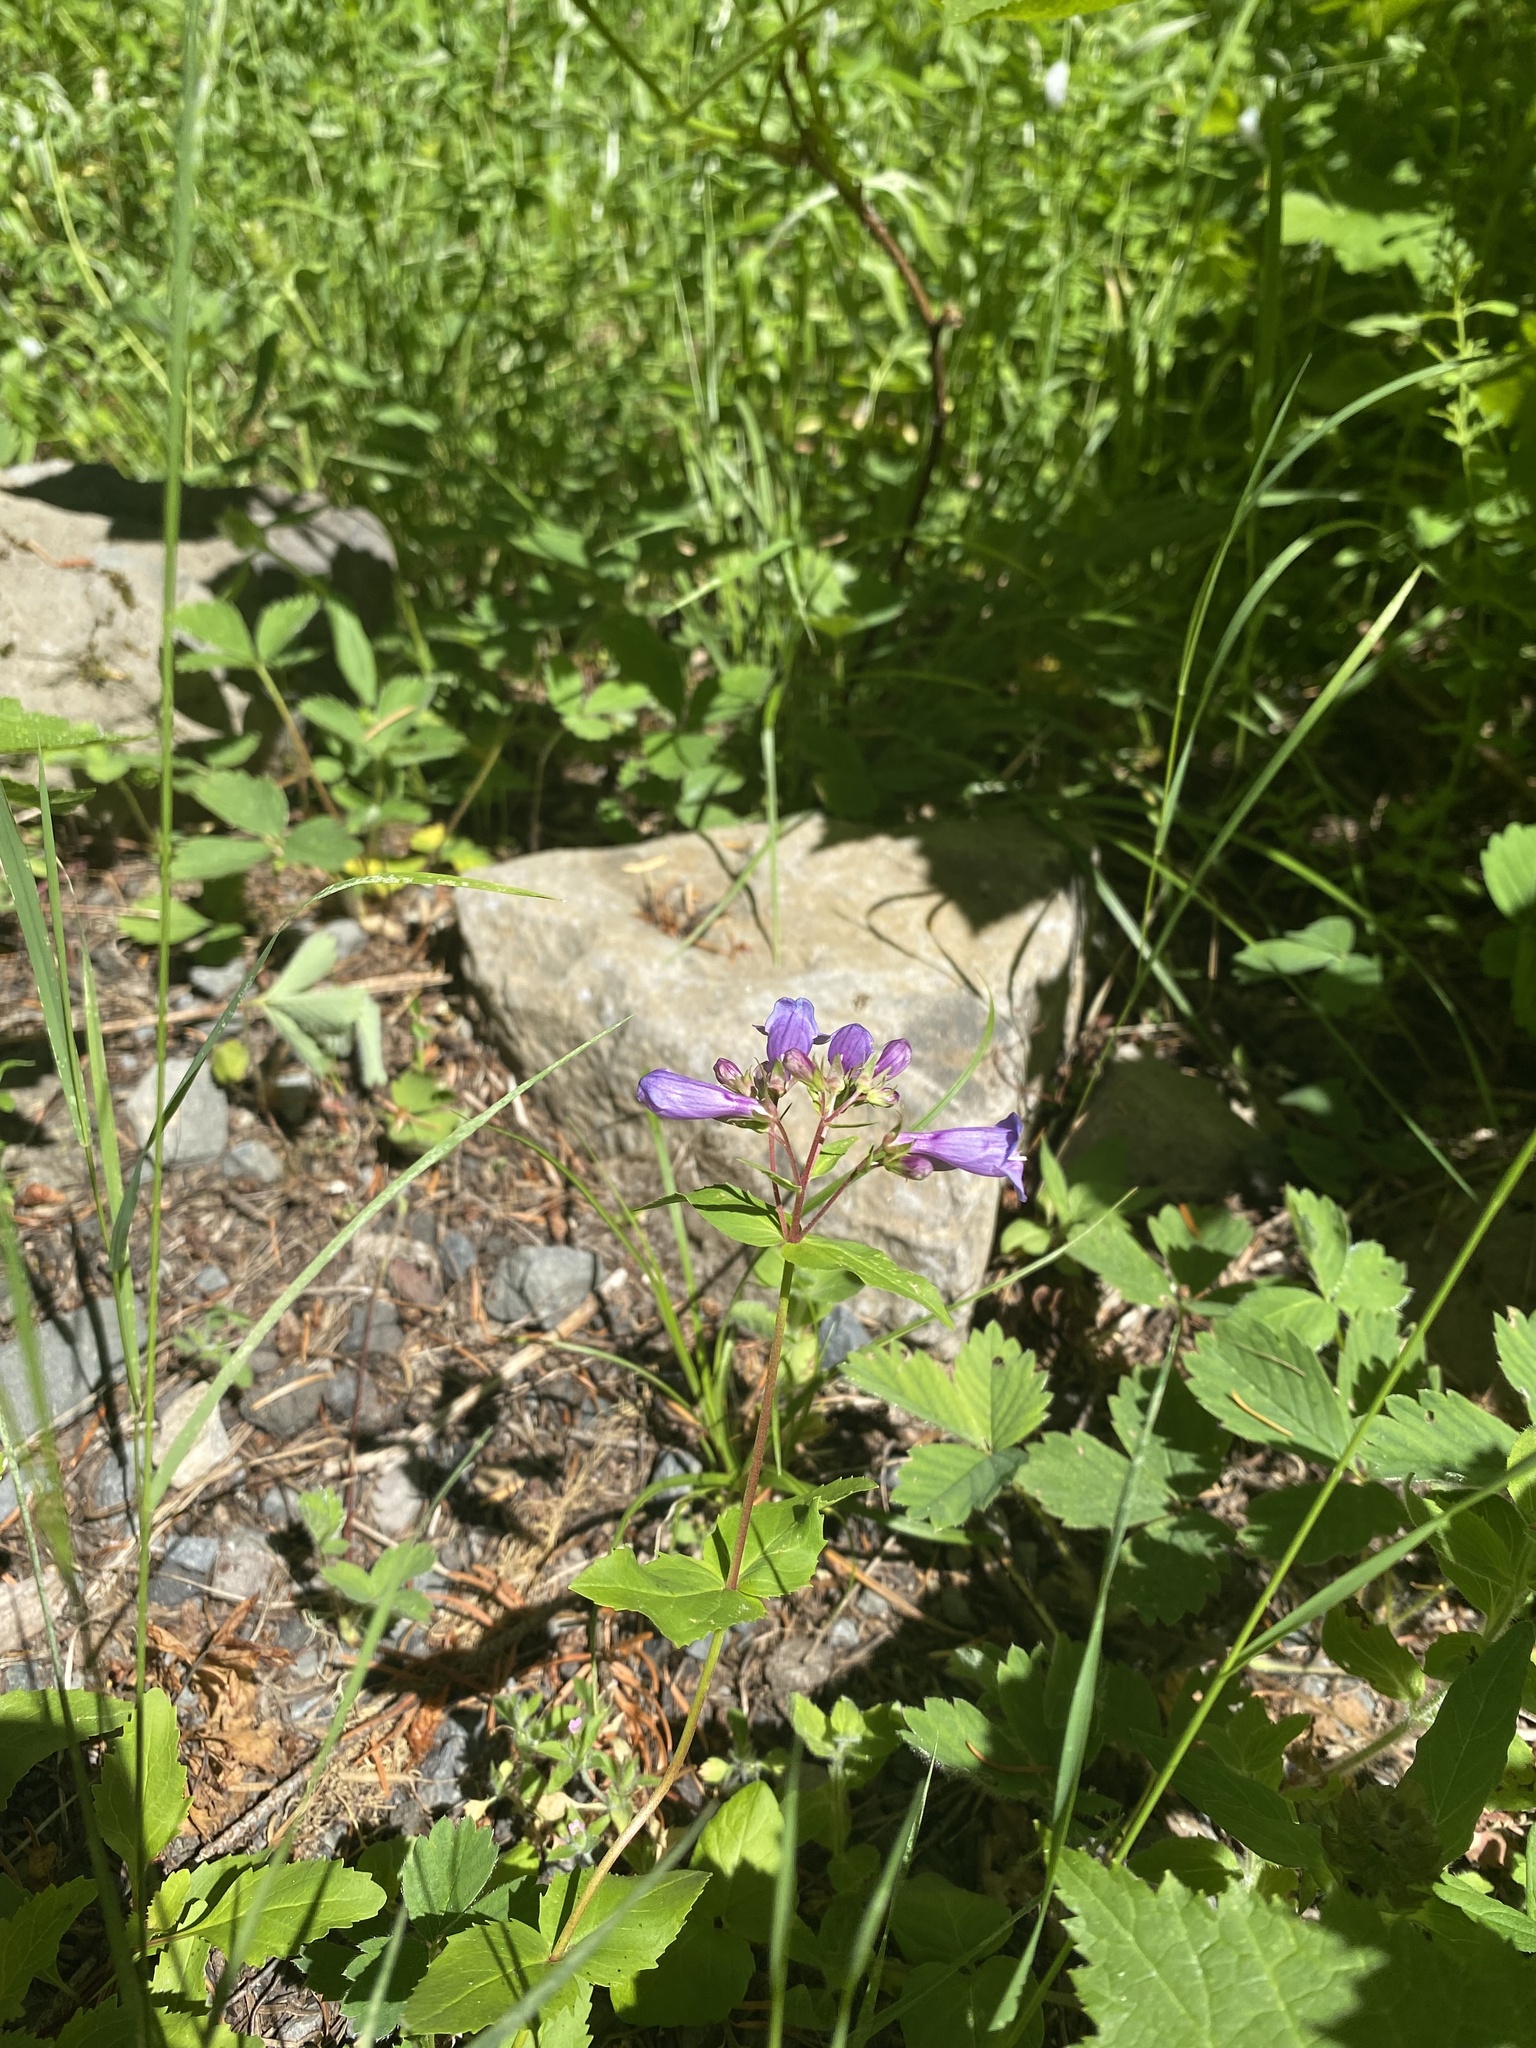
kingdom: Plantae
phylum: Tracheophyta
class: Magnoliopsida
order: Lamiales
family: Plantaginaceae
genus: Penstemon
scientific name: Penstemon serrulatus
